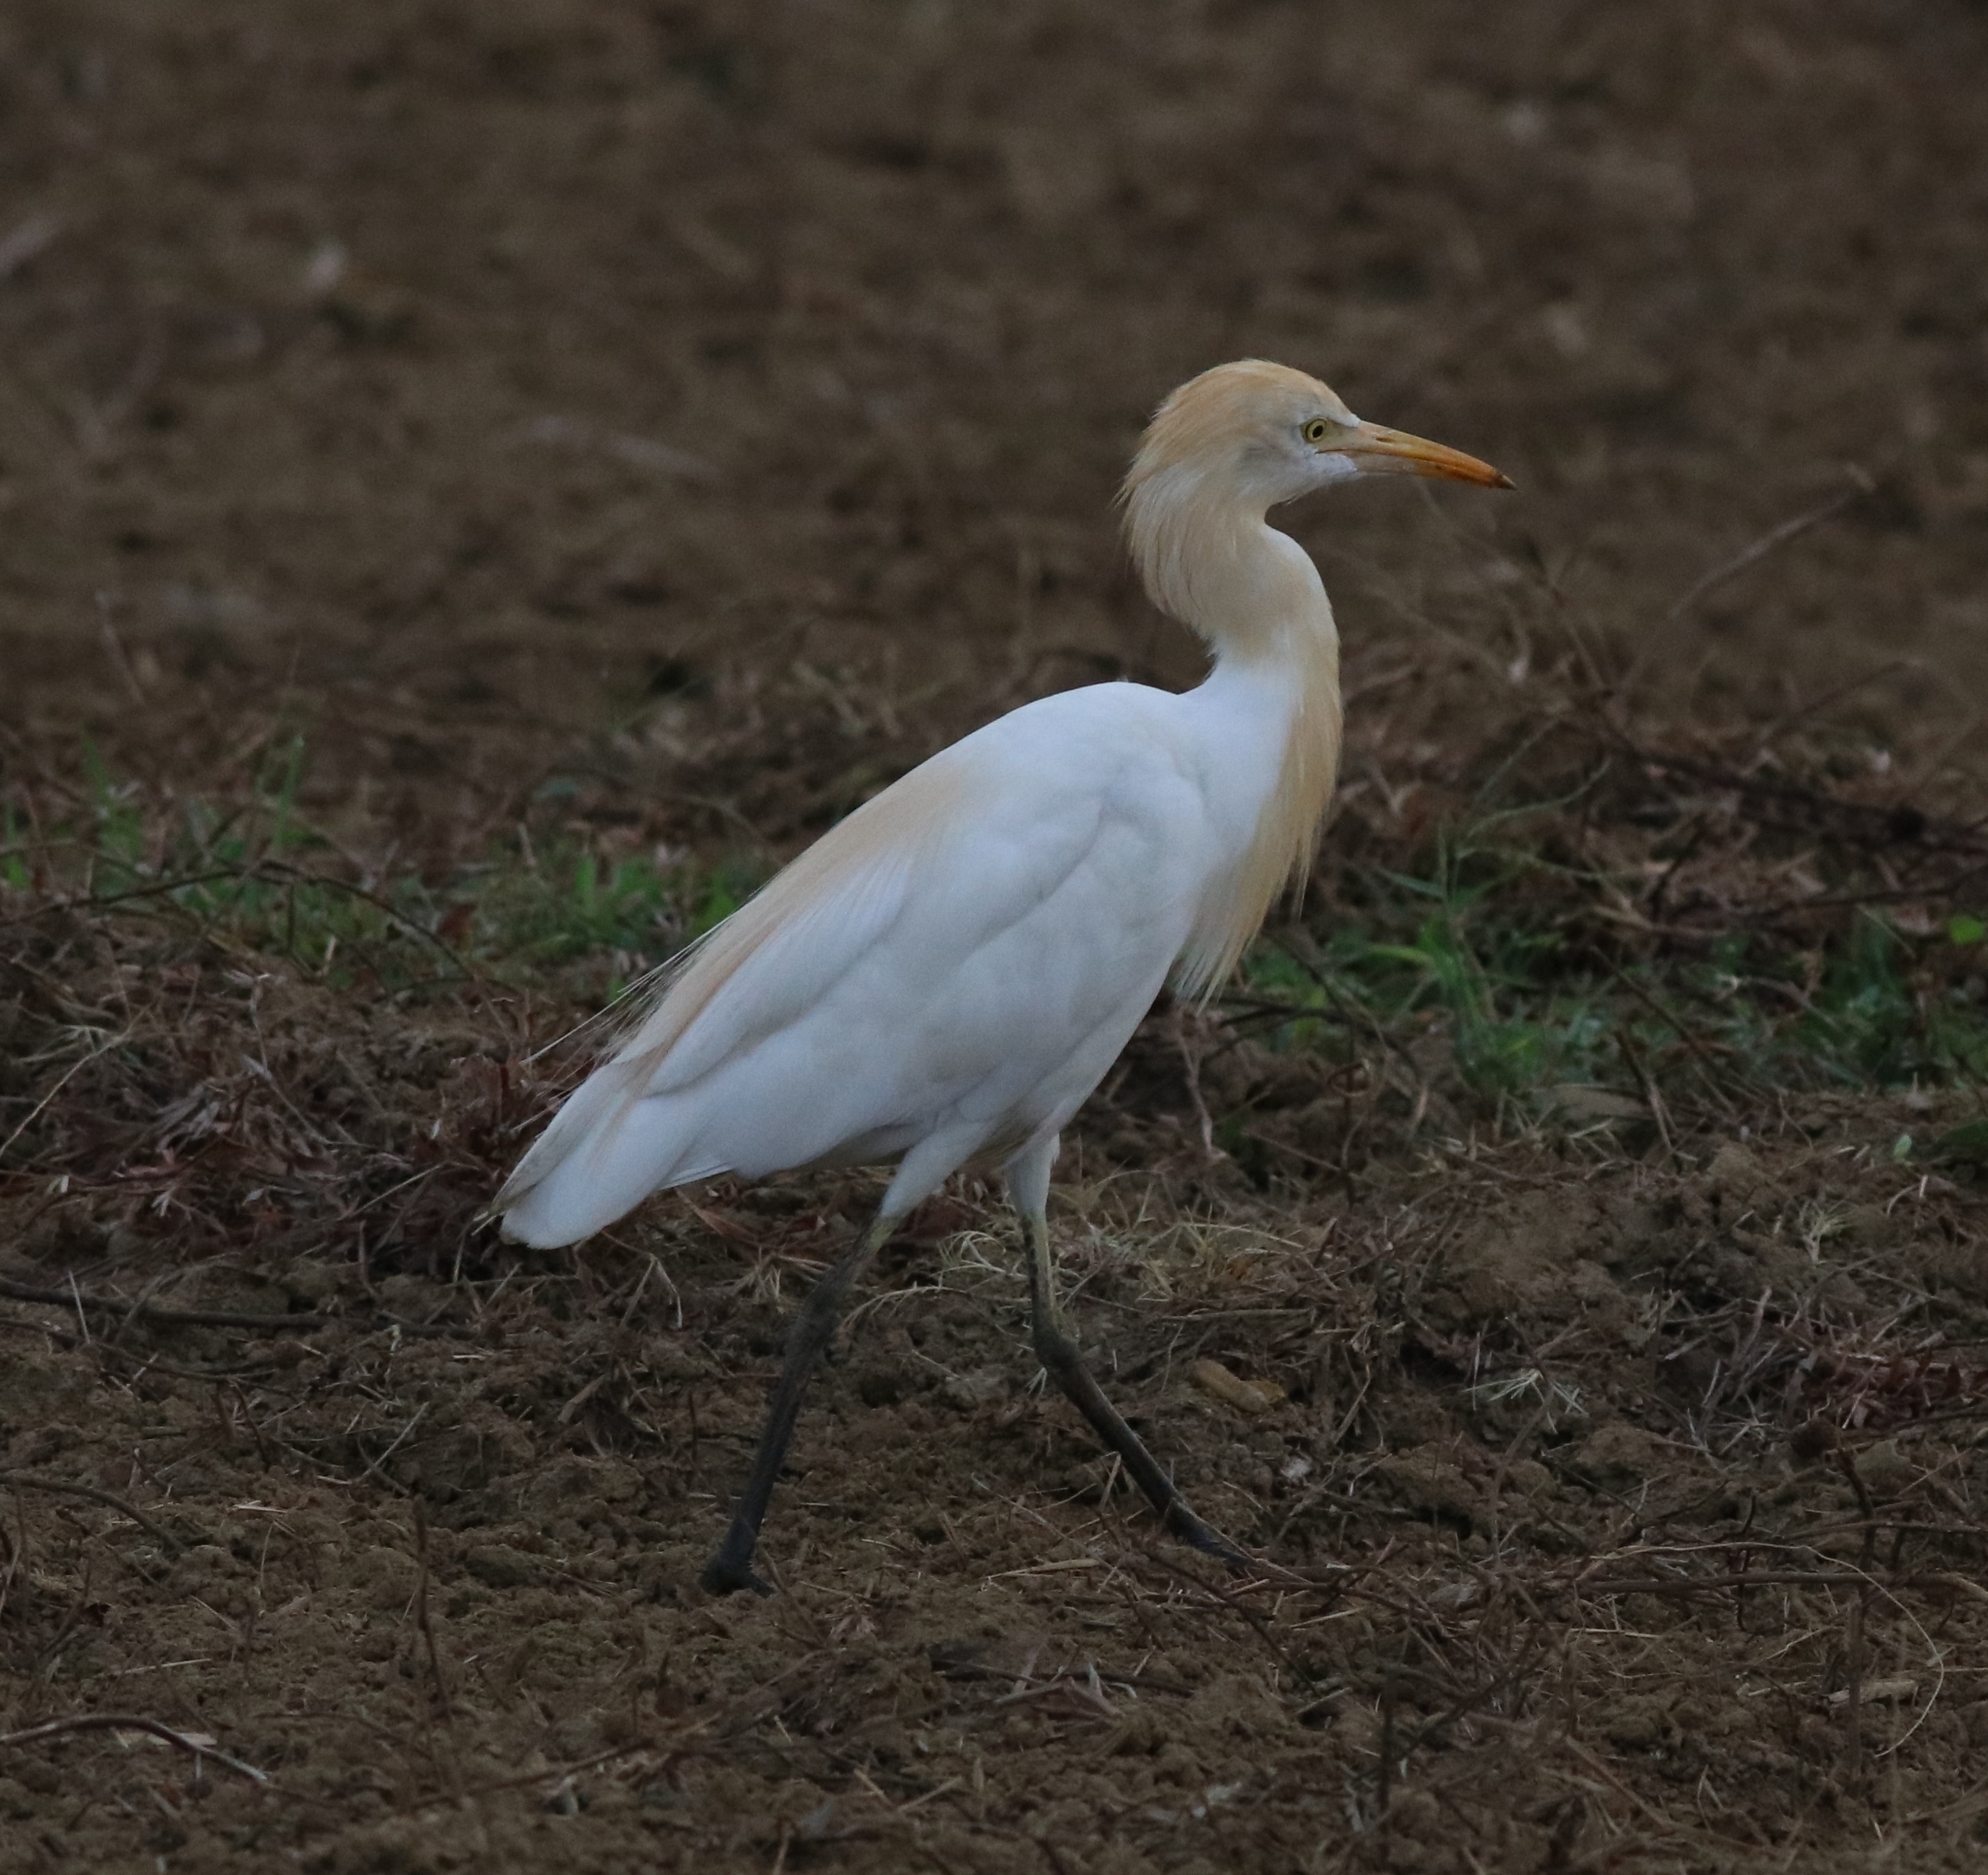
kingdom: Animalia
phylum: Chordata
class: Aves
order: Pelecaniformes
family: Ardeidae
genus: Bubulcus
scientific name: Bubulcus coromandus
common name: Eastern cattle egret
